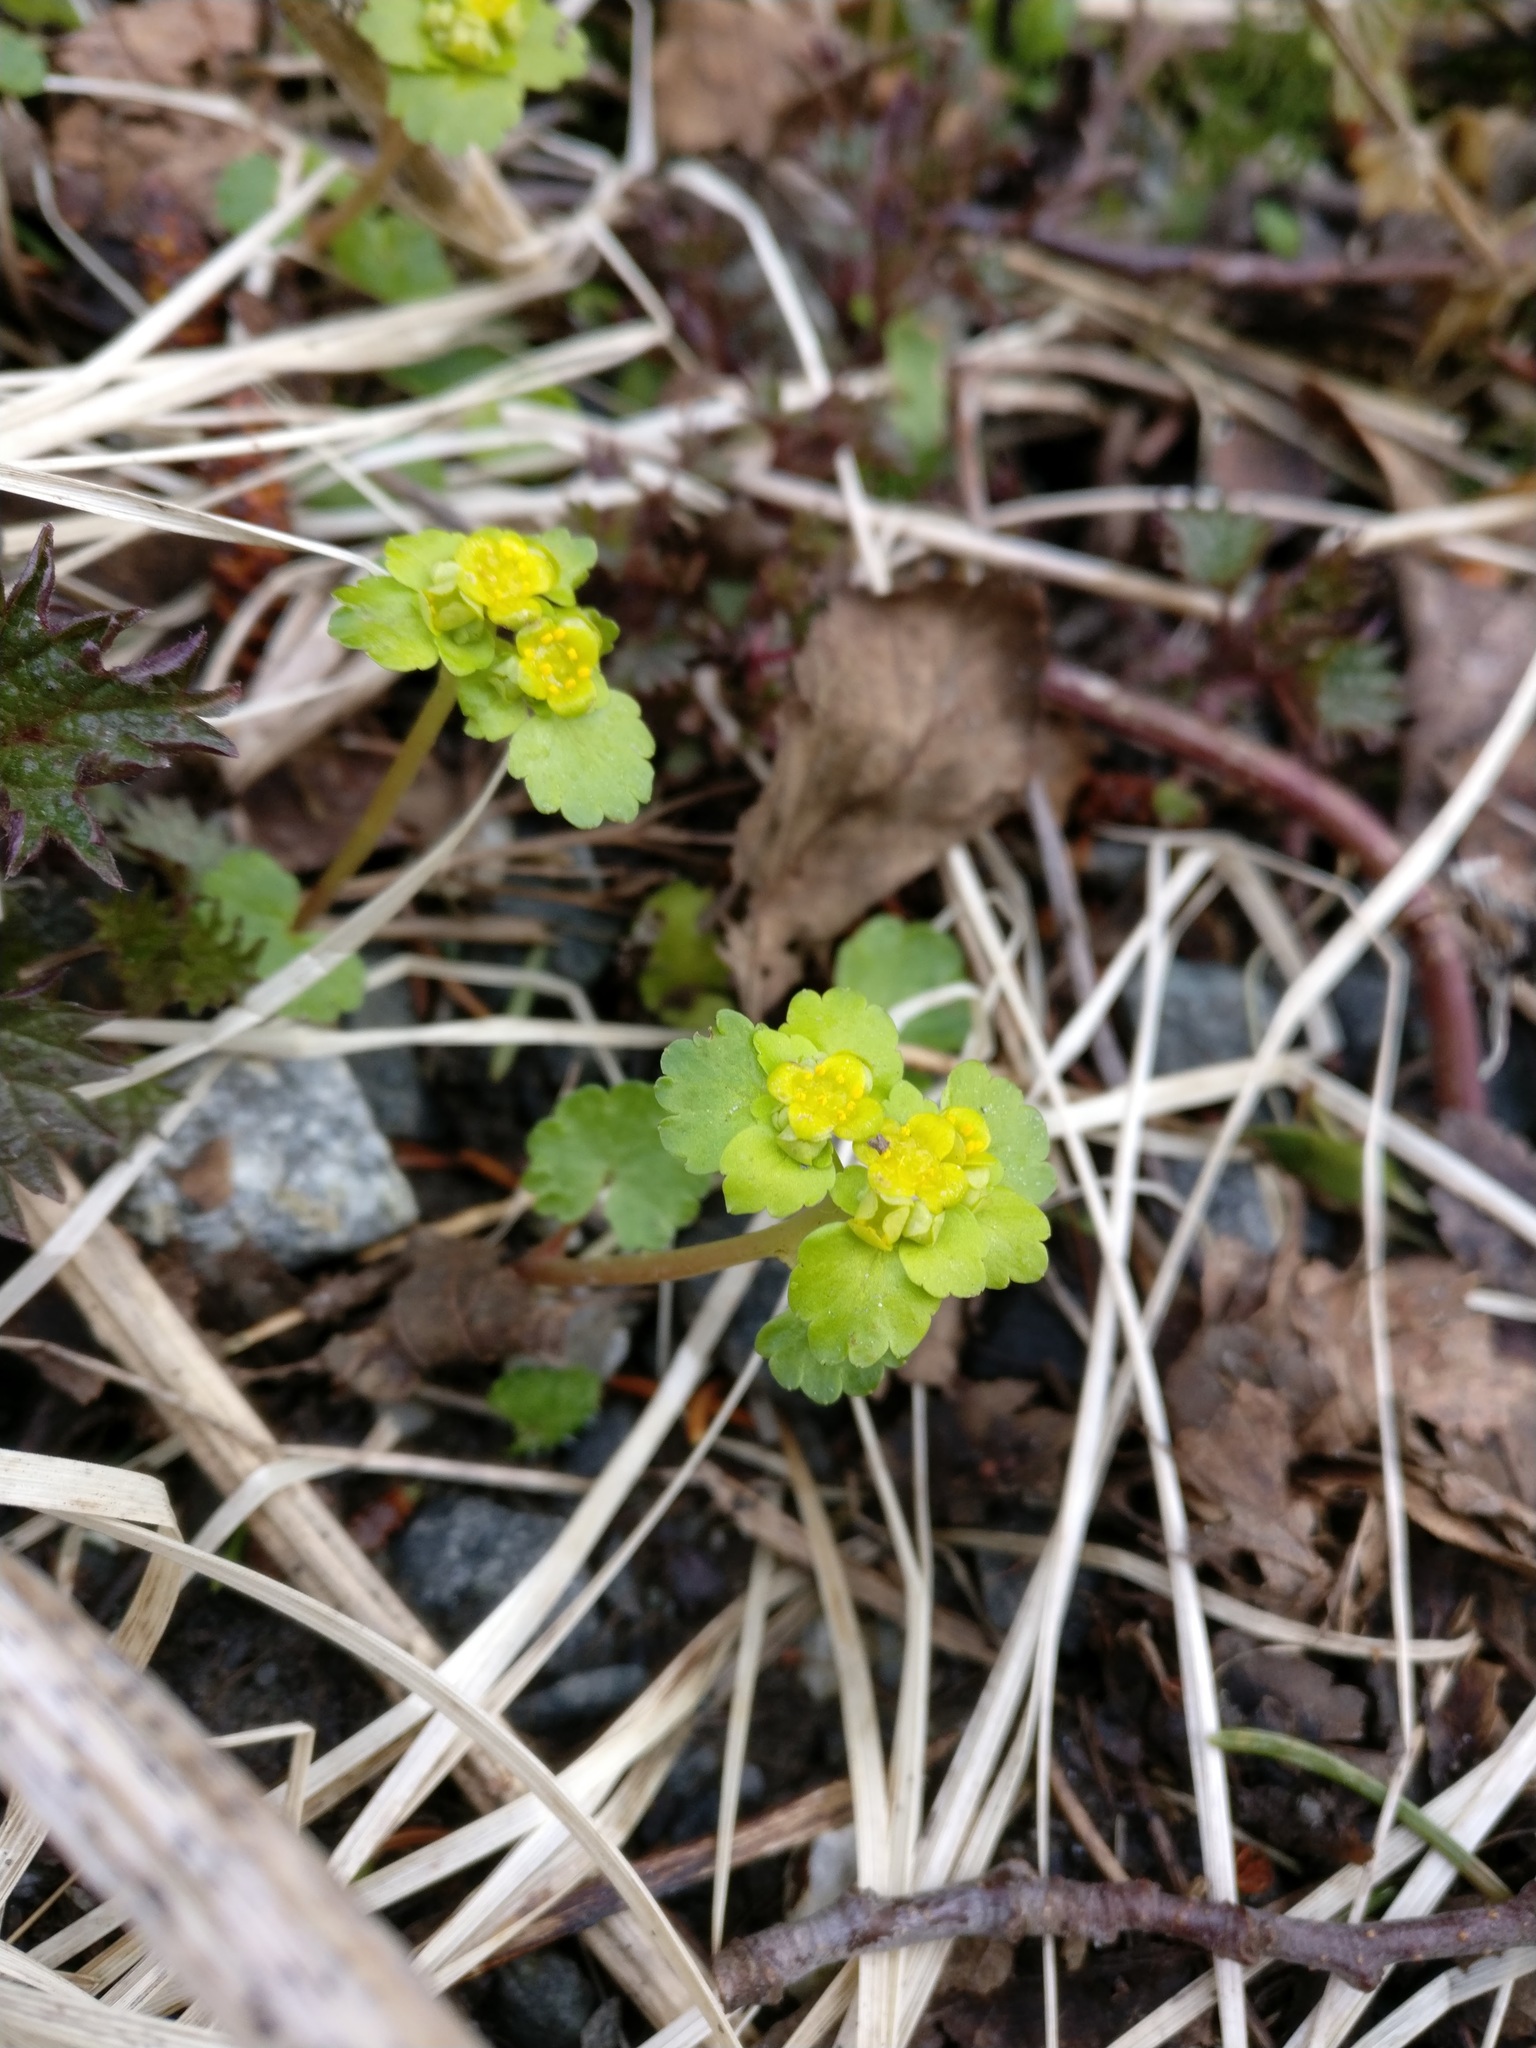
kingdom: Plantae
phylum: Tracheophyta
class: Magnoliopsida
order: Saxifragales
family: Saxifragaceae
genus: Chrysosplenium
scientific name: Chrysosplenium alternifolium
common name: Alternate-leaved golden-saxifrage
